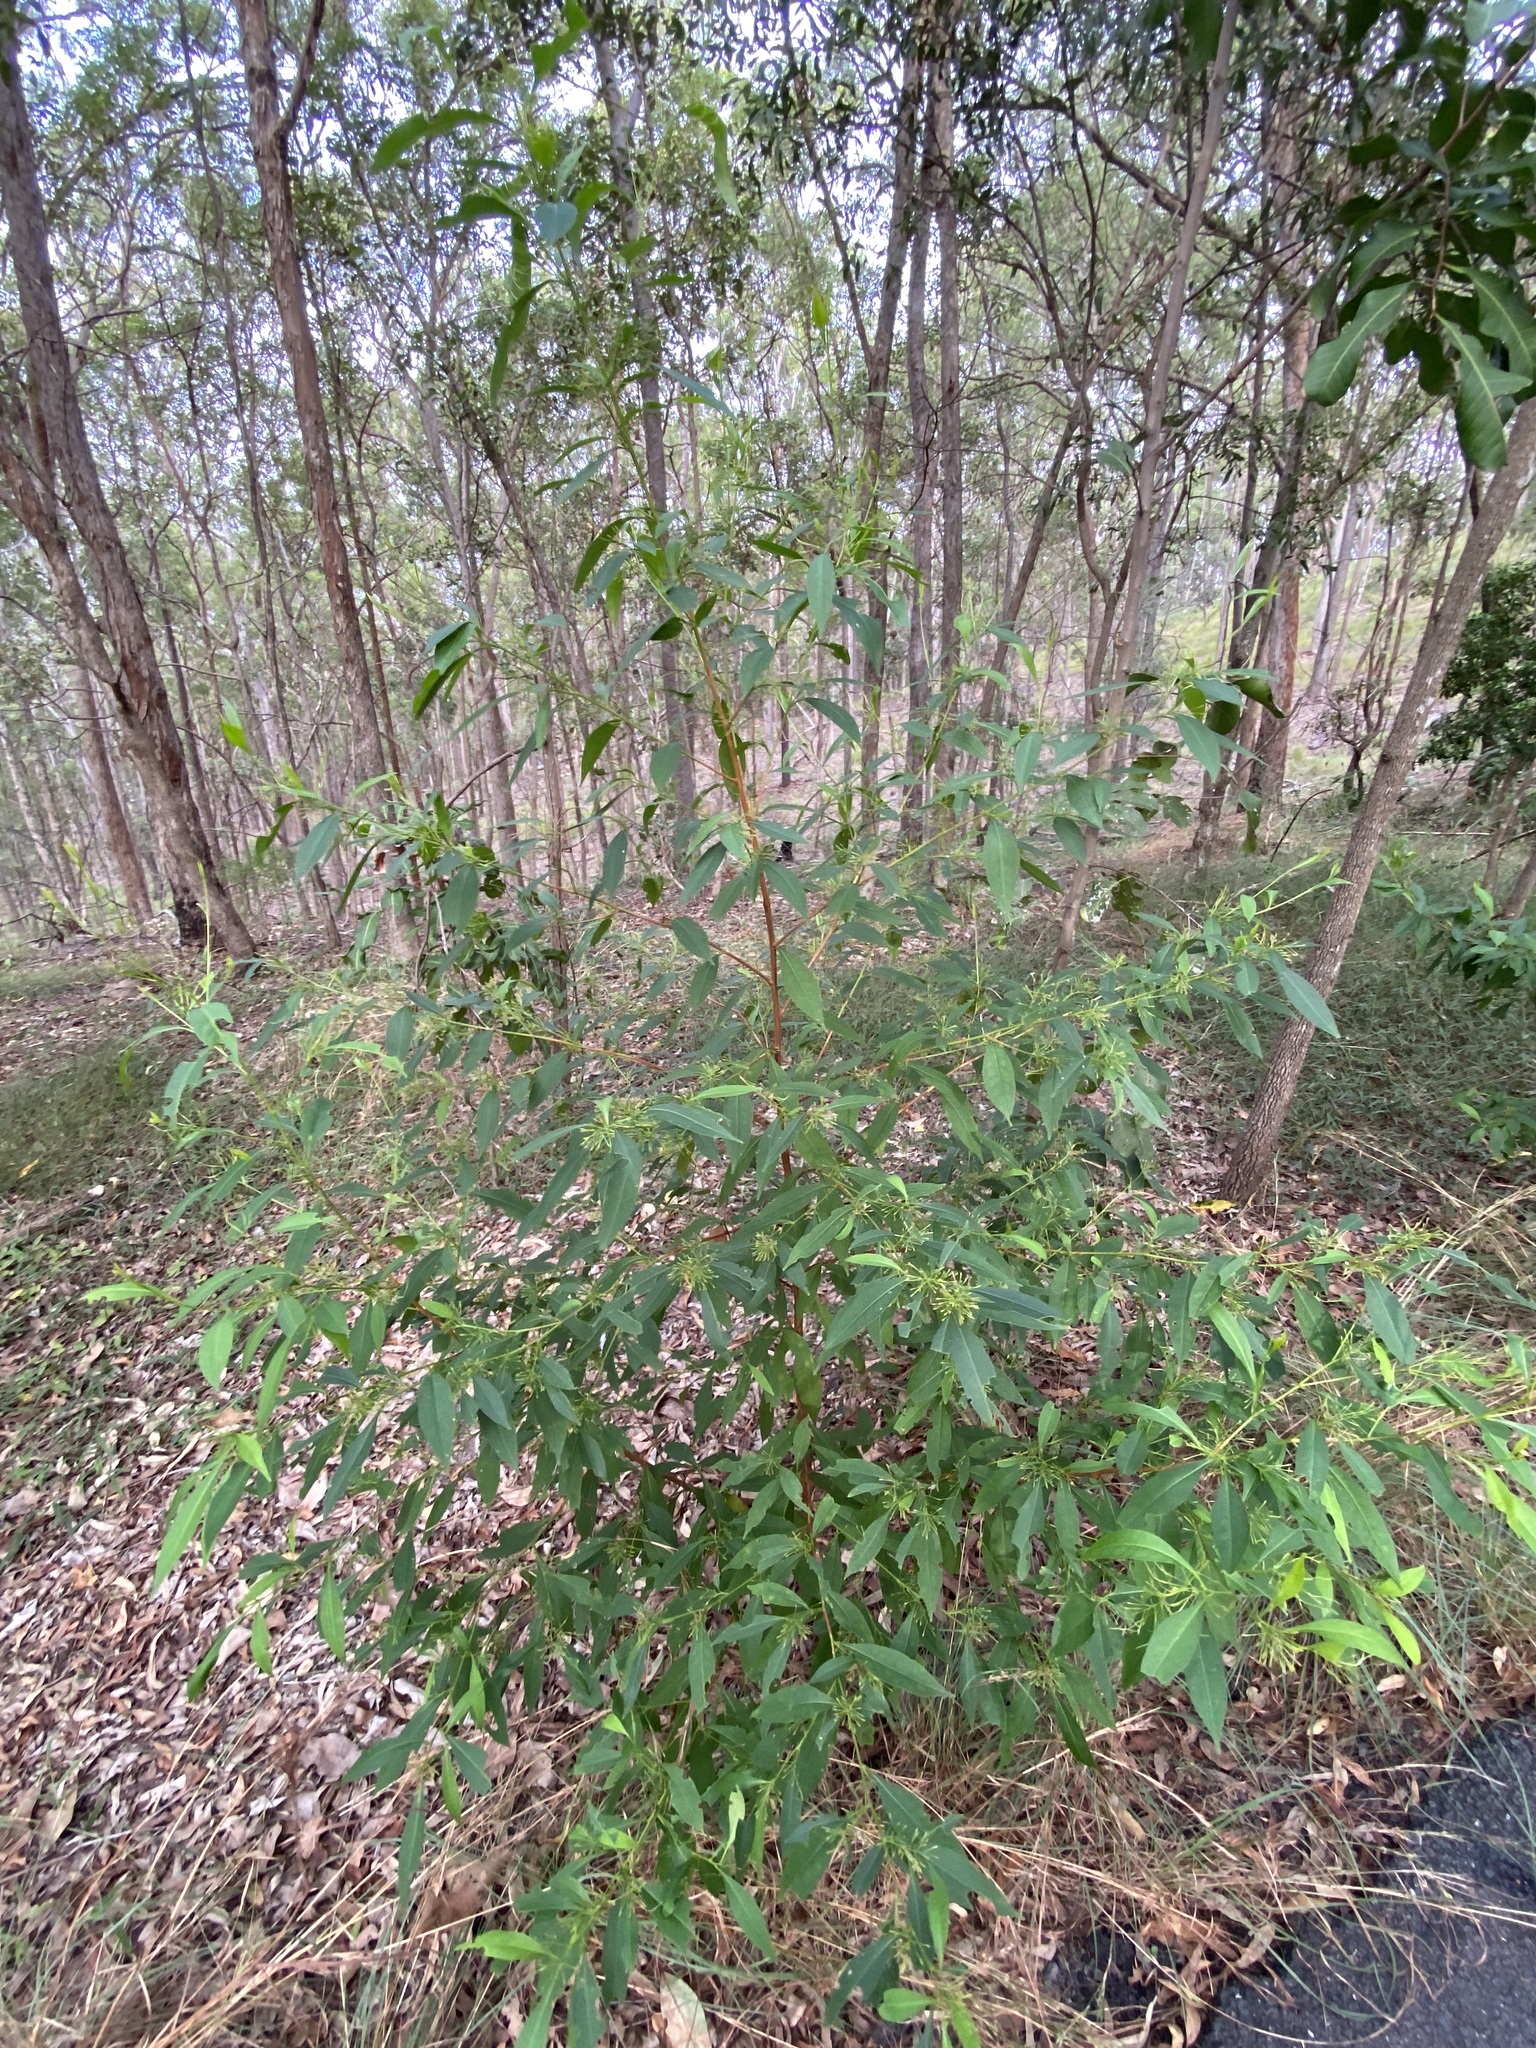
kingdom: Plantae
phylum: Tracheophyta
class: Magnoliopsida
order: Sapindales
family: Sapindaceae
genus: Dodonaea
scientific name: Dodonaea triquetra
